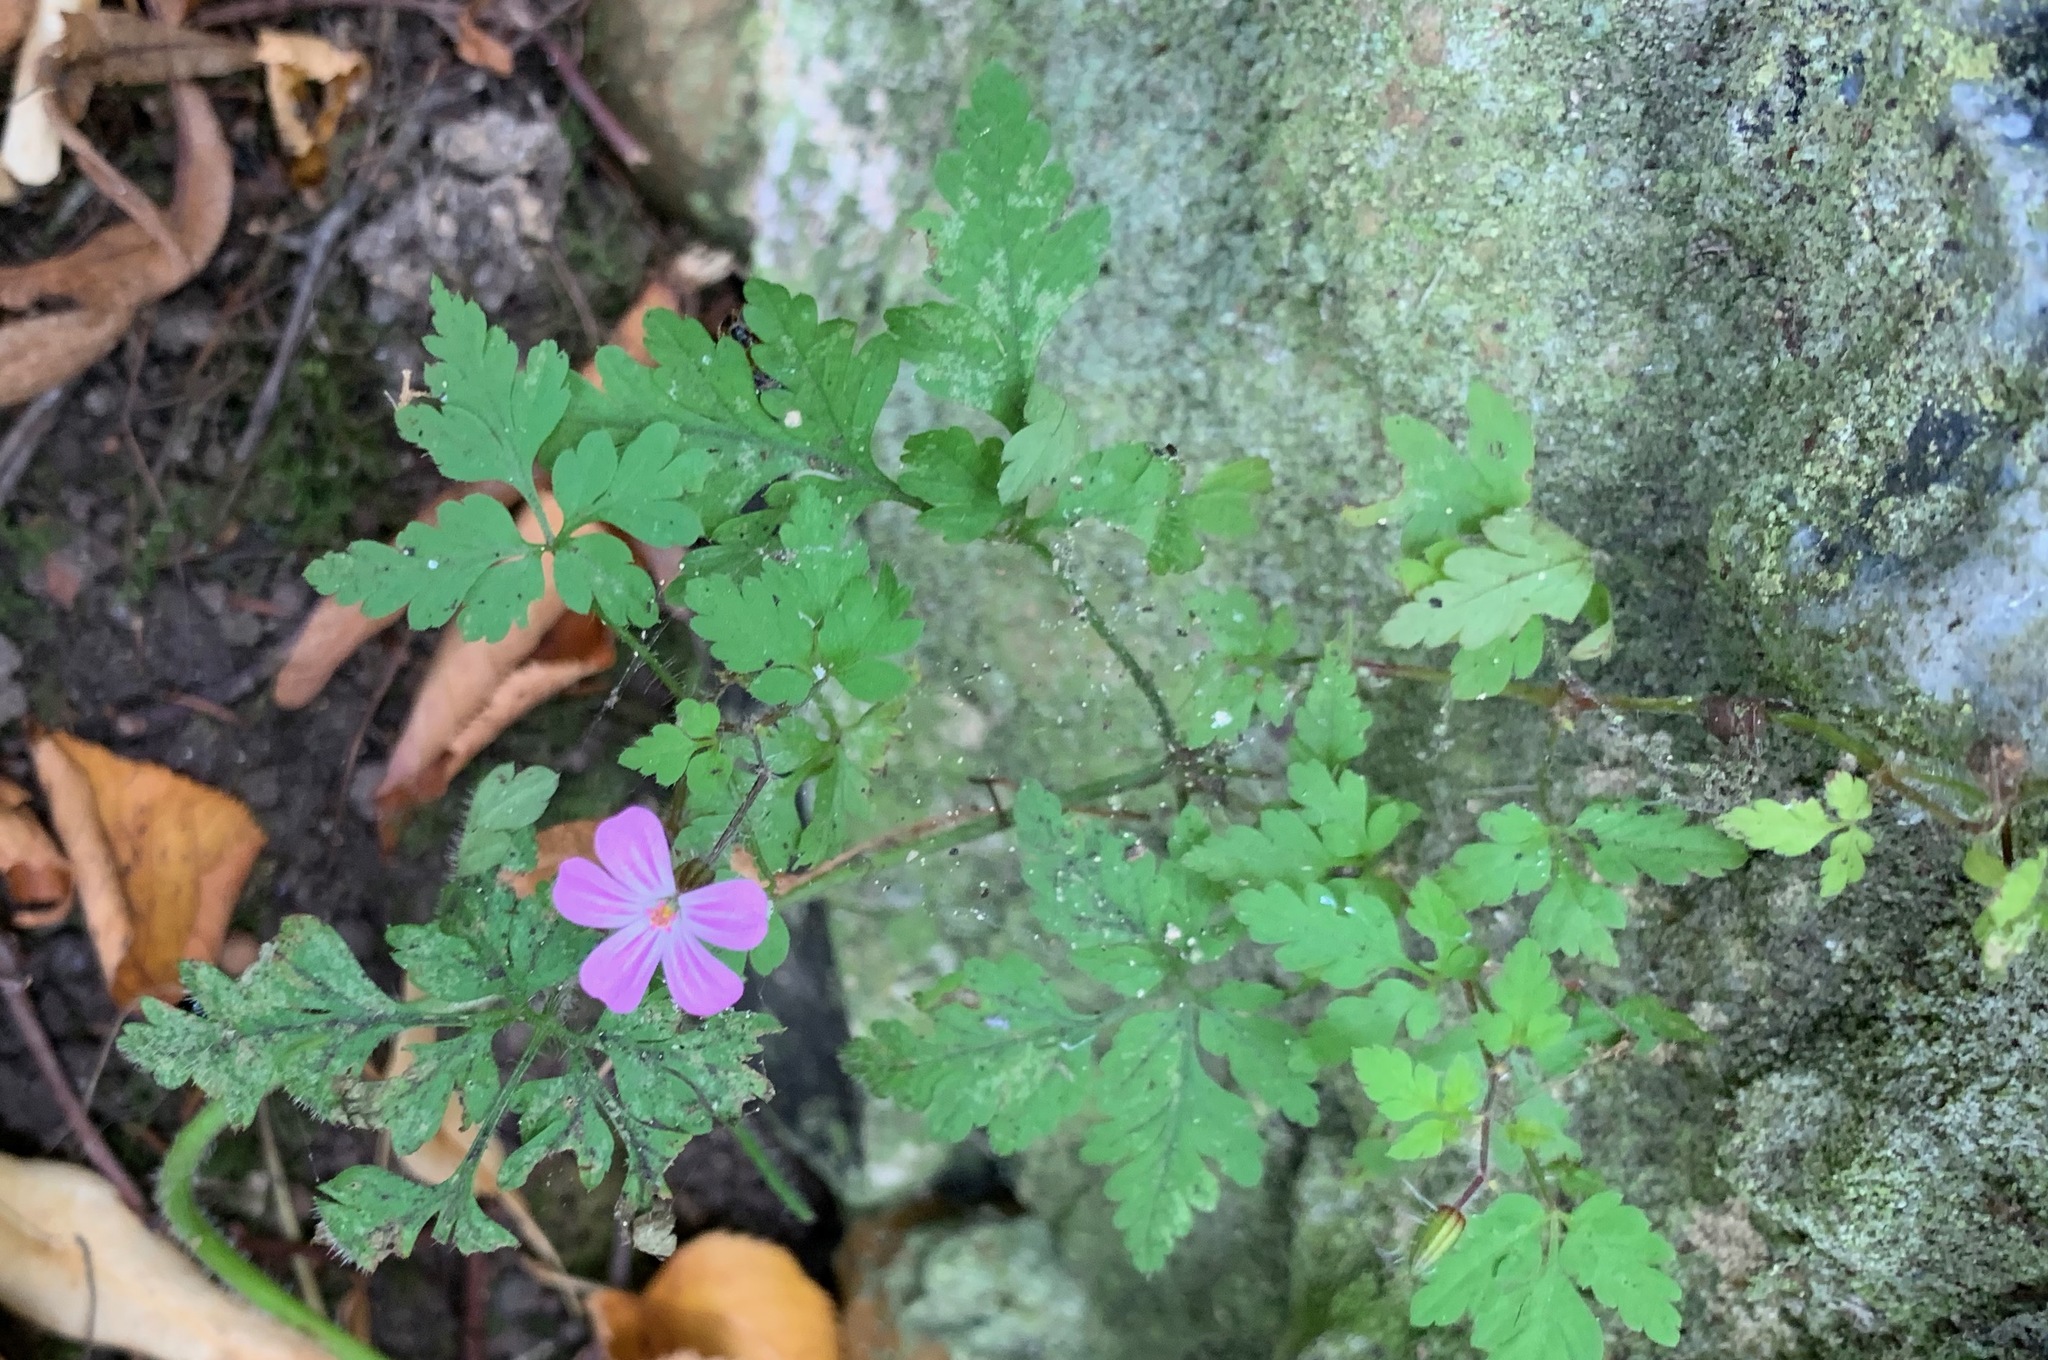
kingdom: Plantae
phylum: Tracheophyta
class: Magnoliopsida
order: Geraniales
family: Geraniaceae
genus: Geranium
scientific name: Geranium robertianum
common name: Herb-robert
